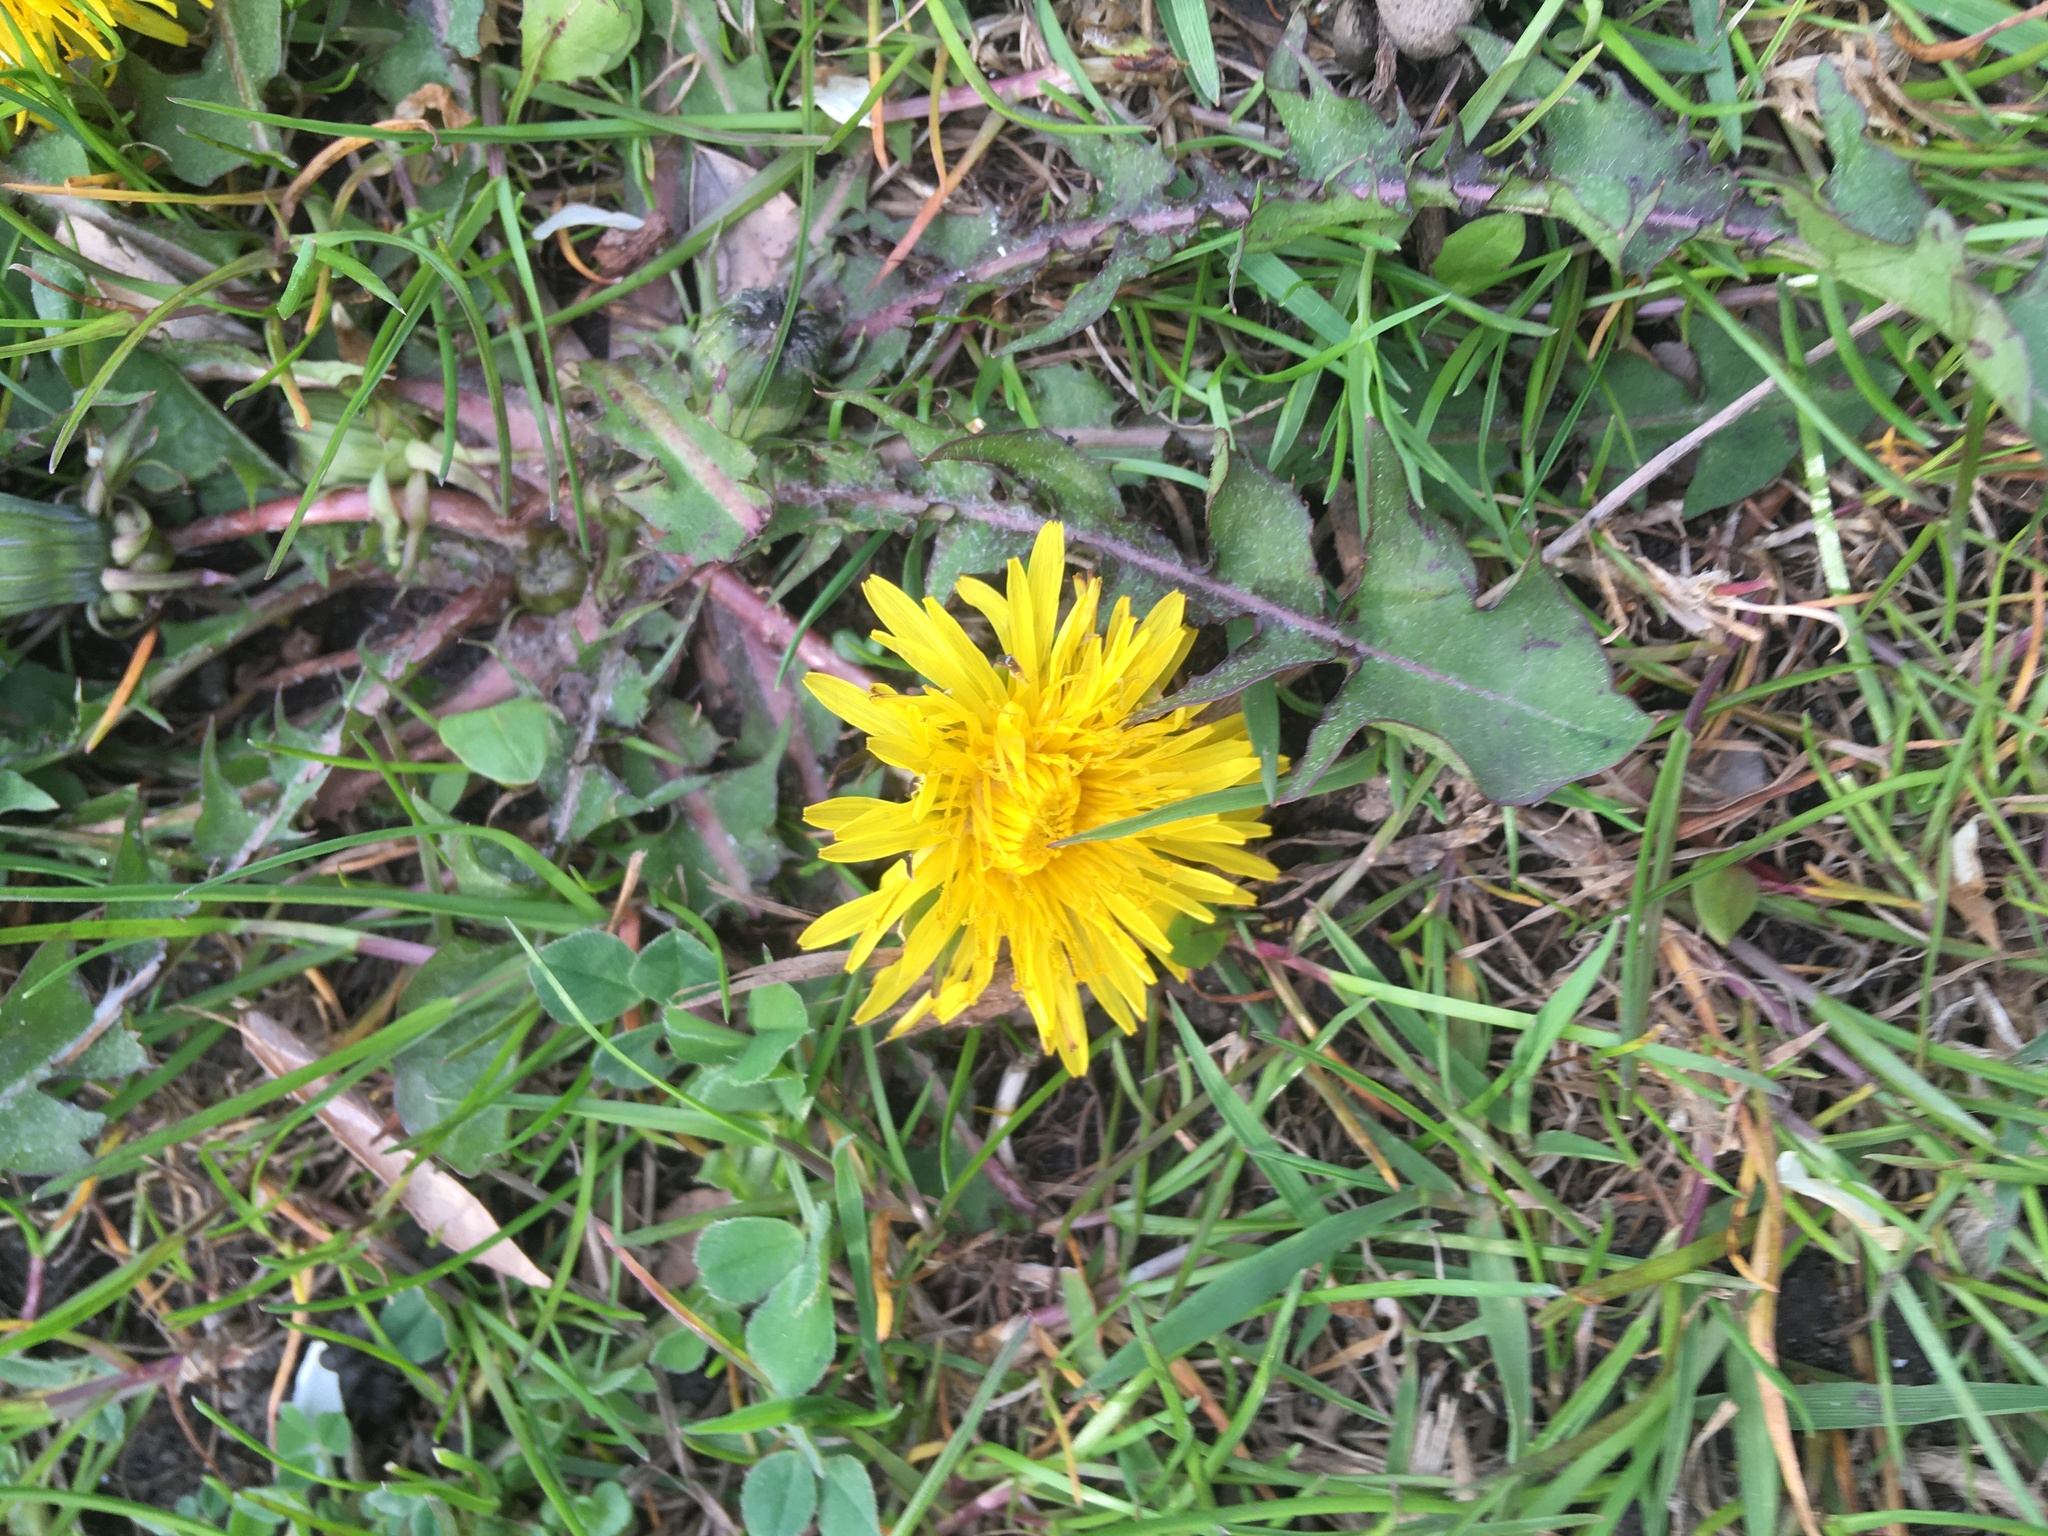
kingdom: Plantae
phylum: Tracheophyta
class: Magnoliopsida
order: Asterales
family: Asteraceae
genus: Taraxacum
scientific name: Taraxacum officinale
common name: Common dandelion
